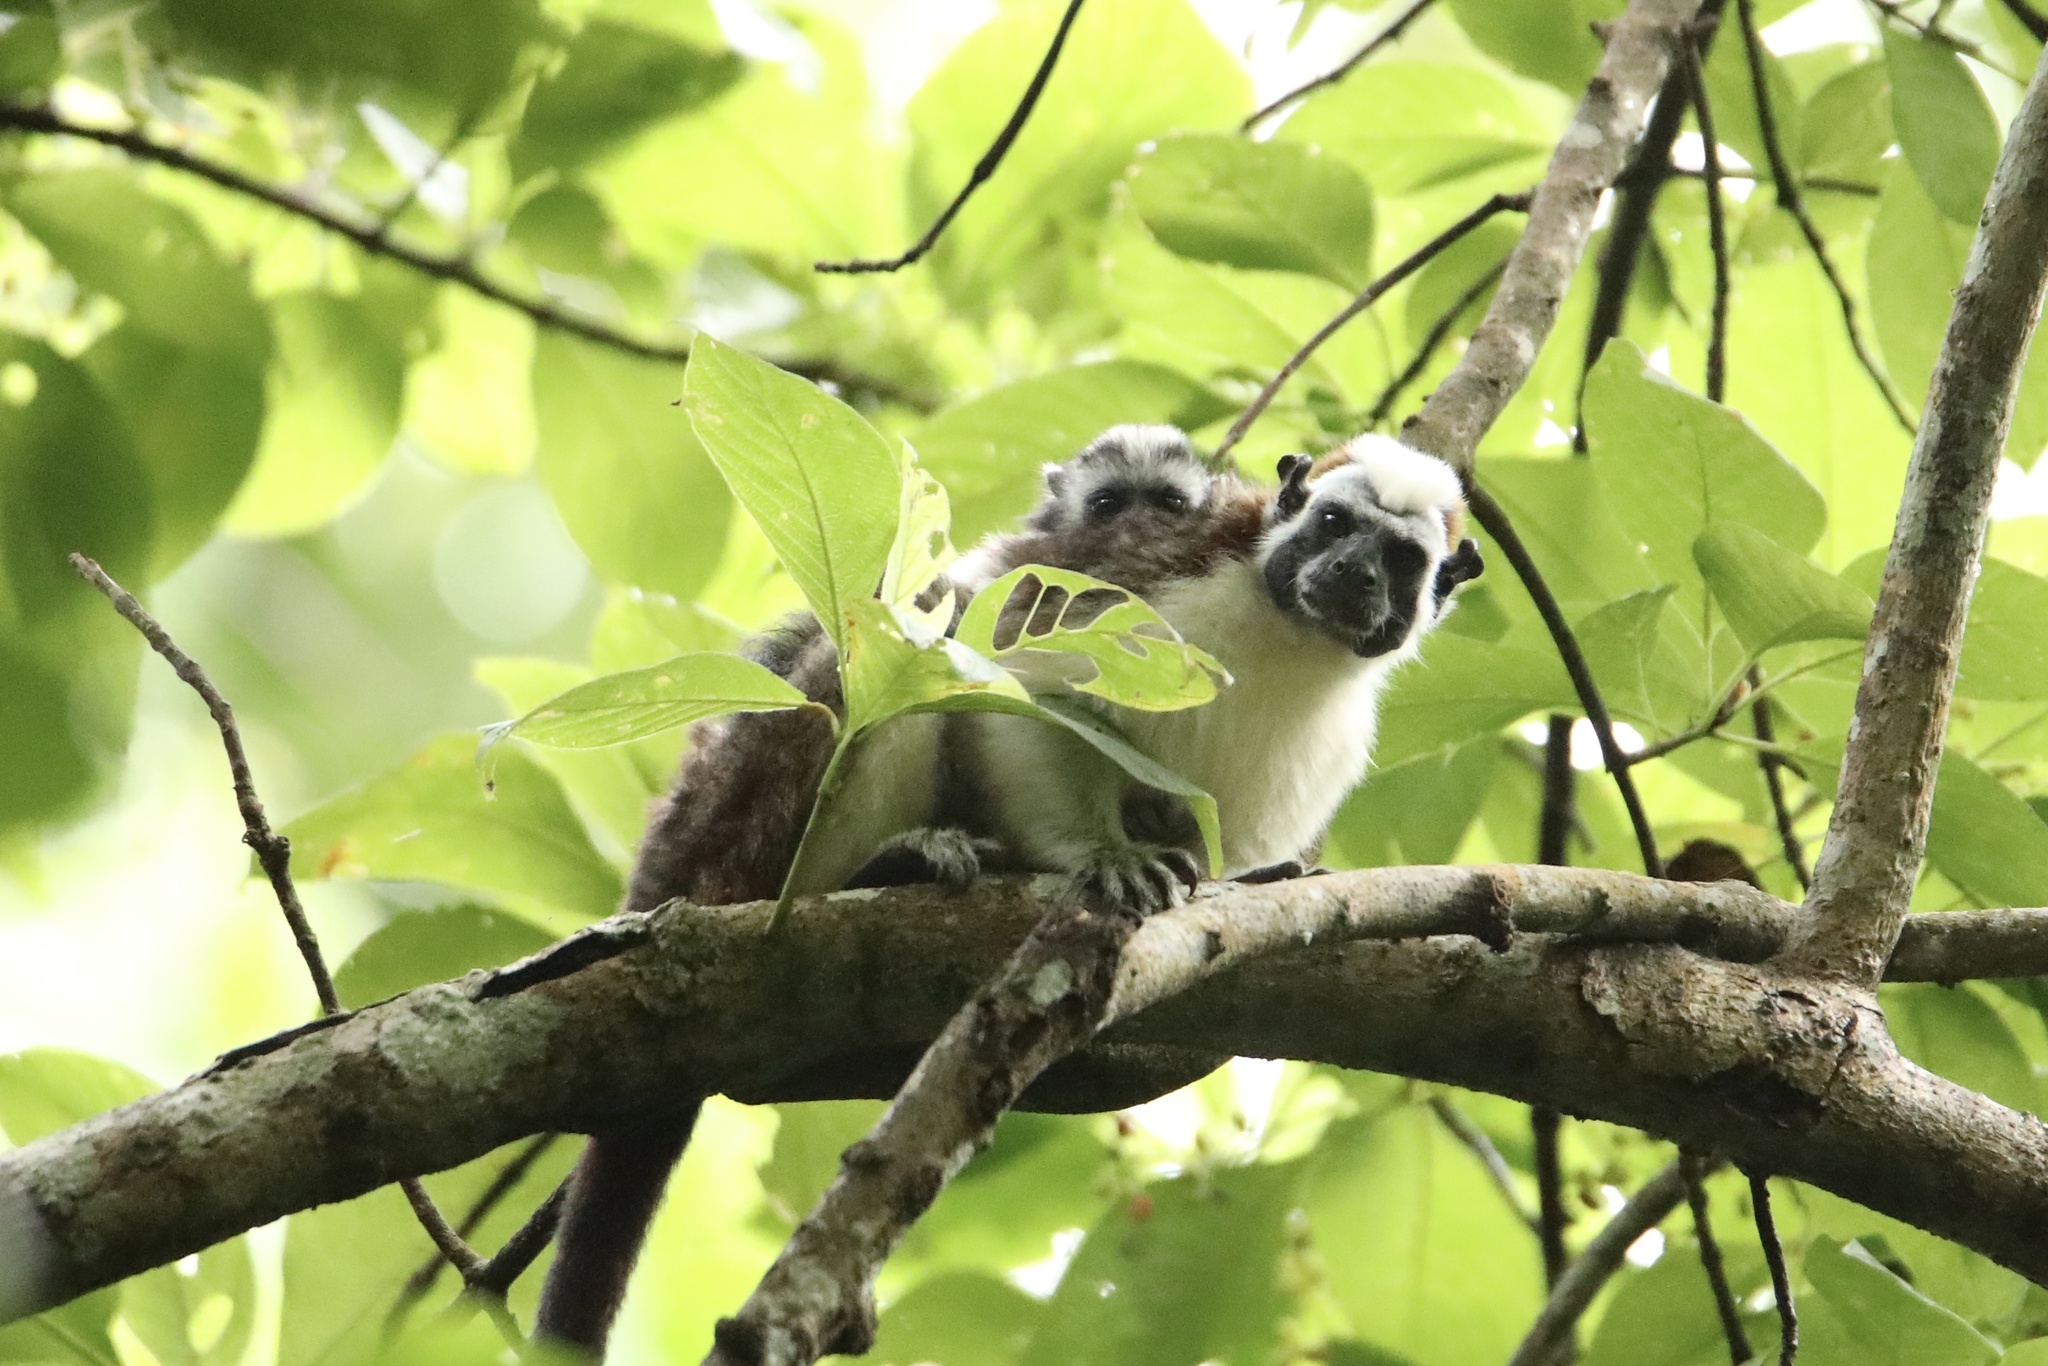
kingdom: Animalia
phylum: Chordata
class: Mammalia
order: Primates
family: Callitrichidae
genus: Saguinus
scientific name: Saguinus geoffroyi
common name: Geoffroy s tamarin
